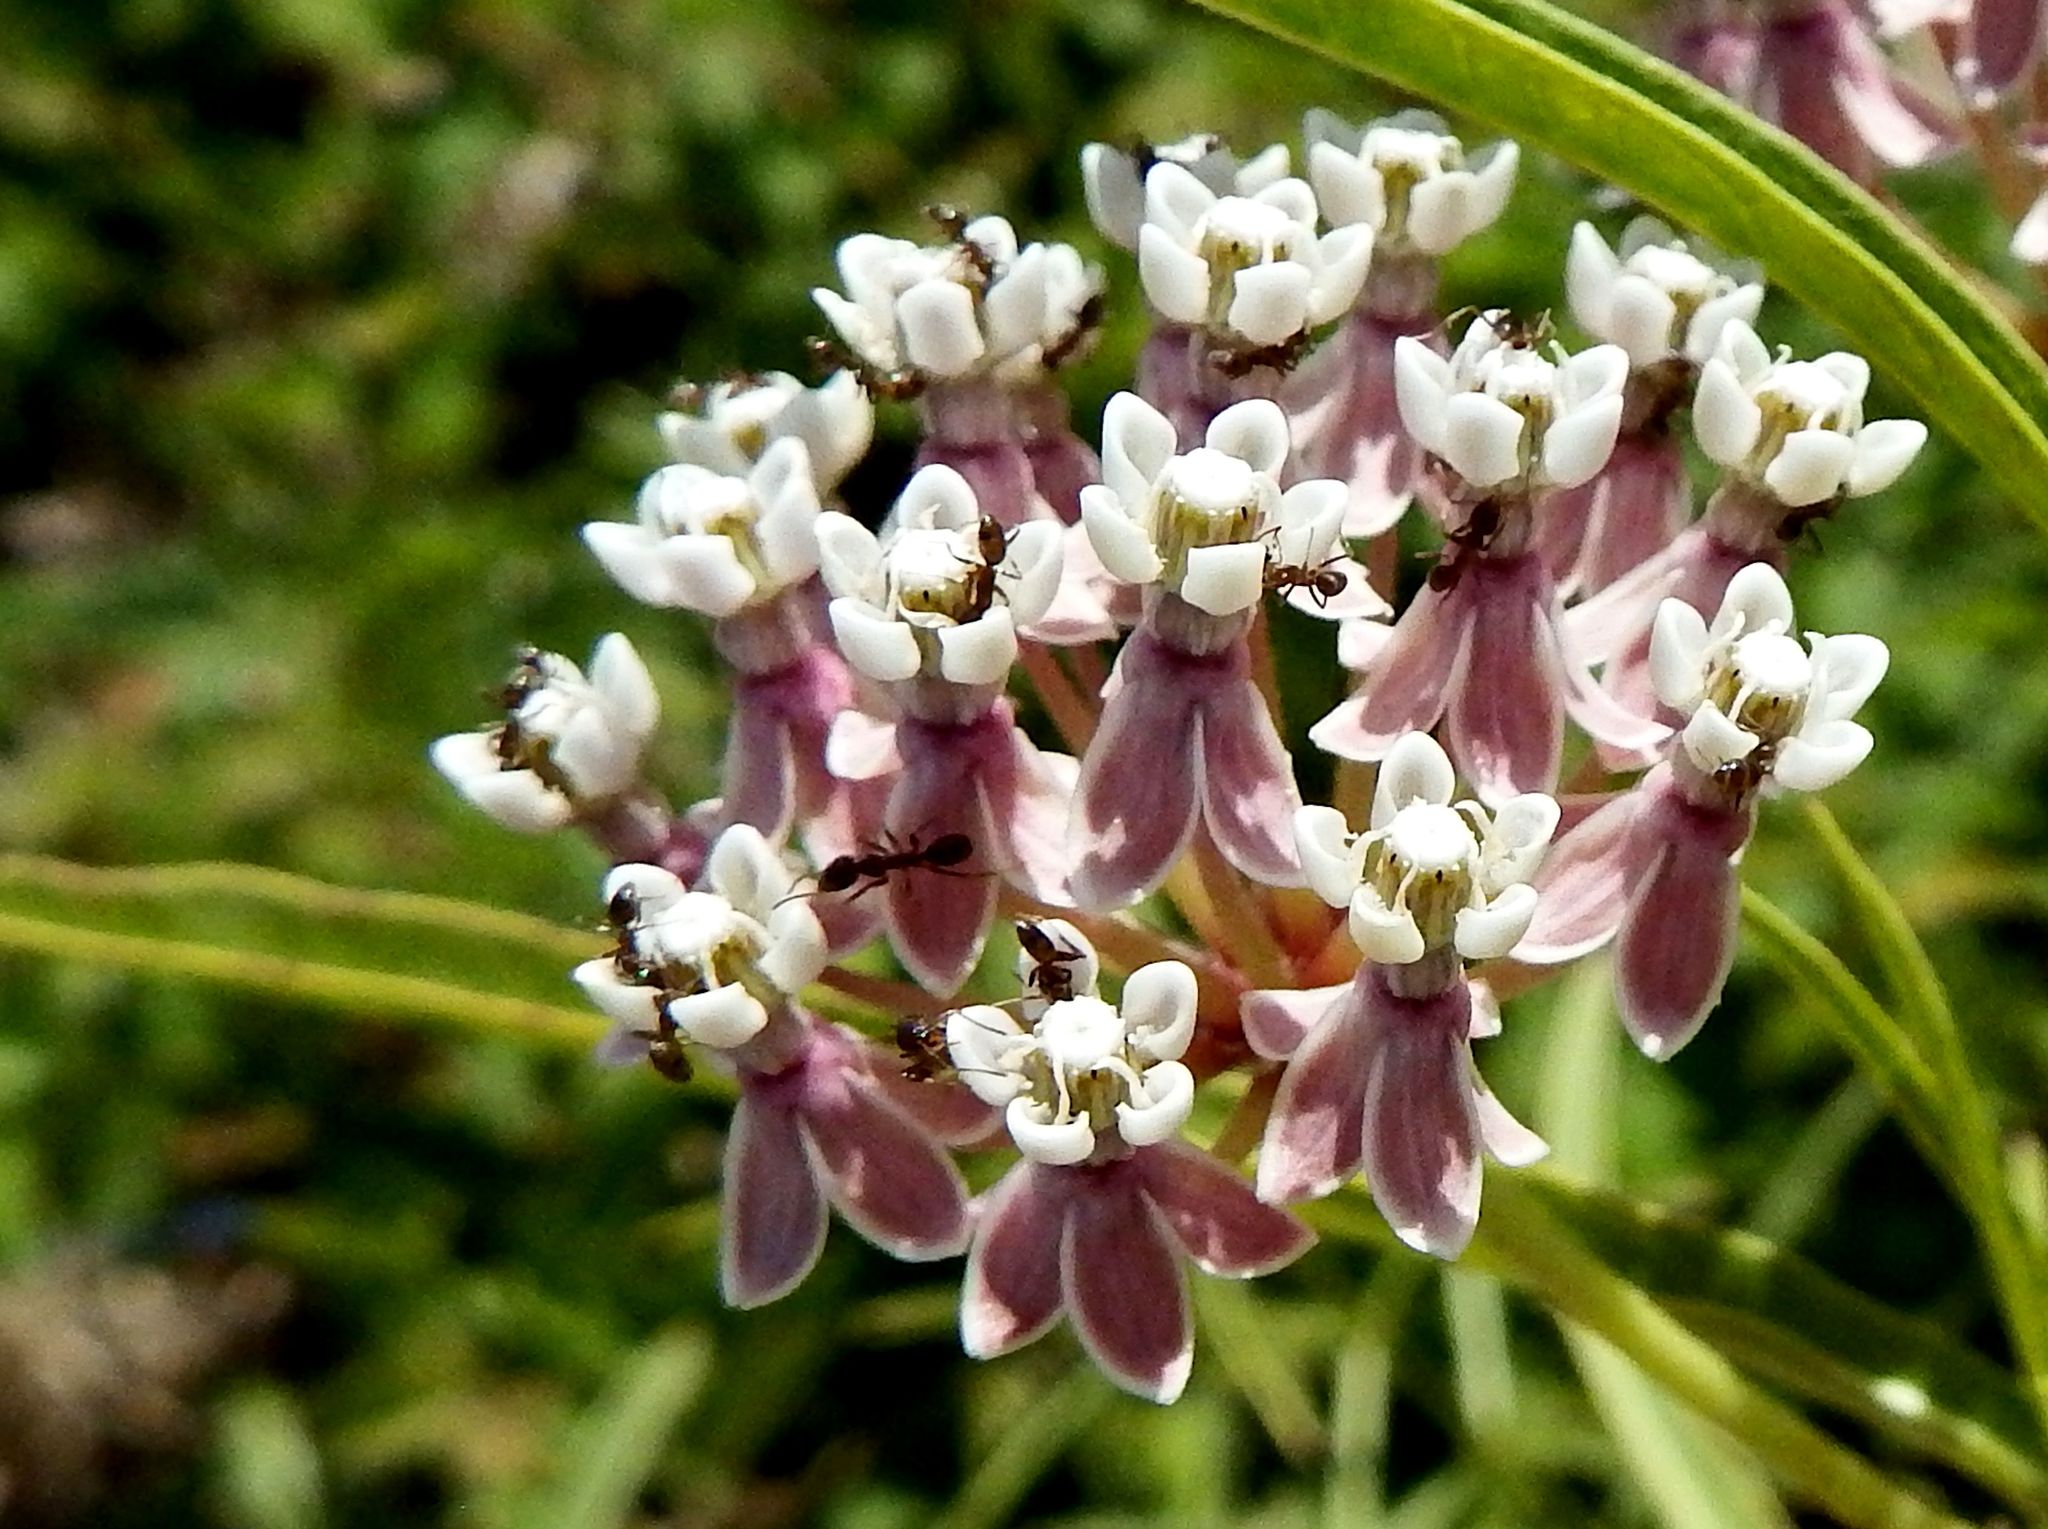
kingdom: Plantae
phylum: Tracheophyta
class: Magnoliopsida
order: Gentianales
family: Apocynaceae
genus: Asclepias
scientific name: Asclepias fascicularis
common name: Mexican milkweed
